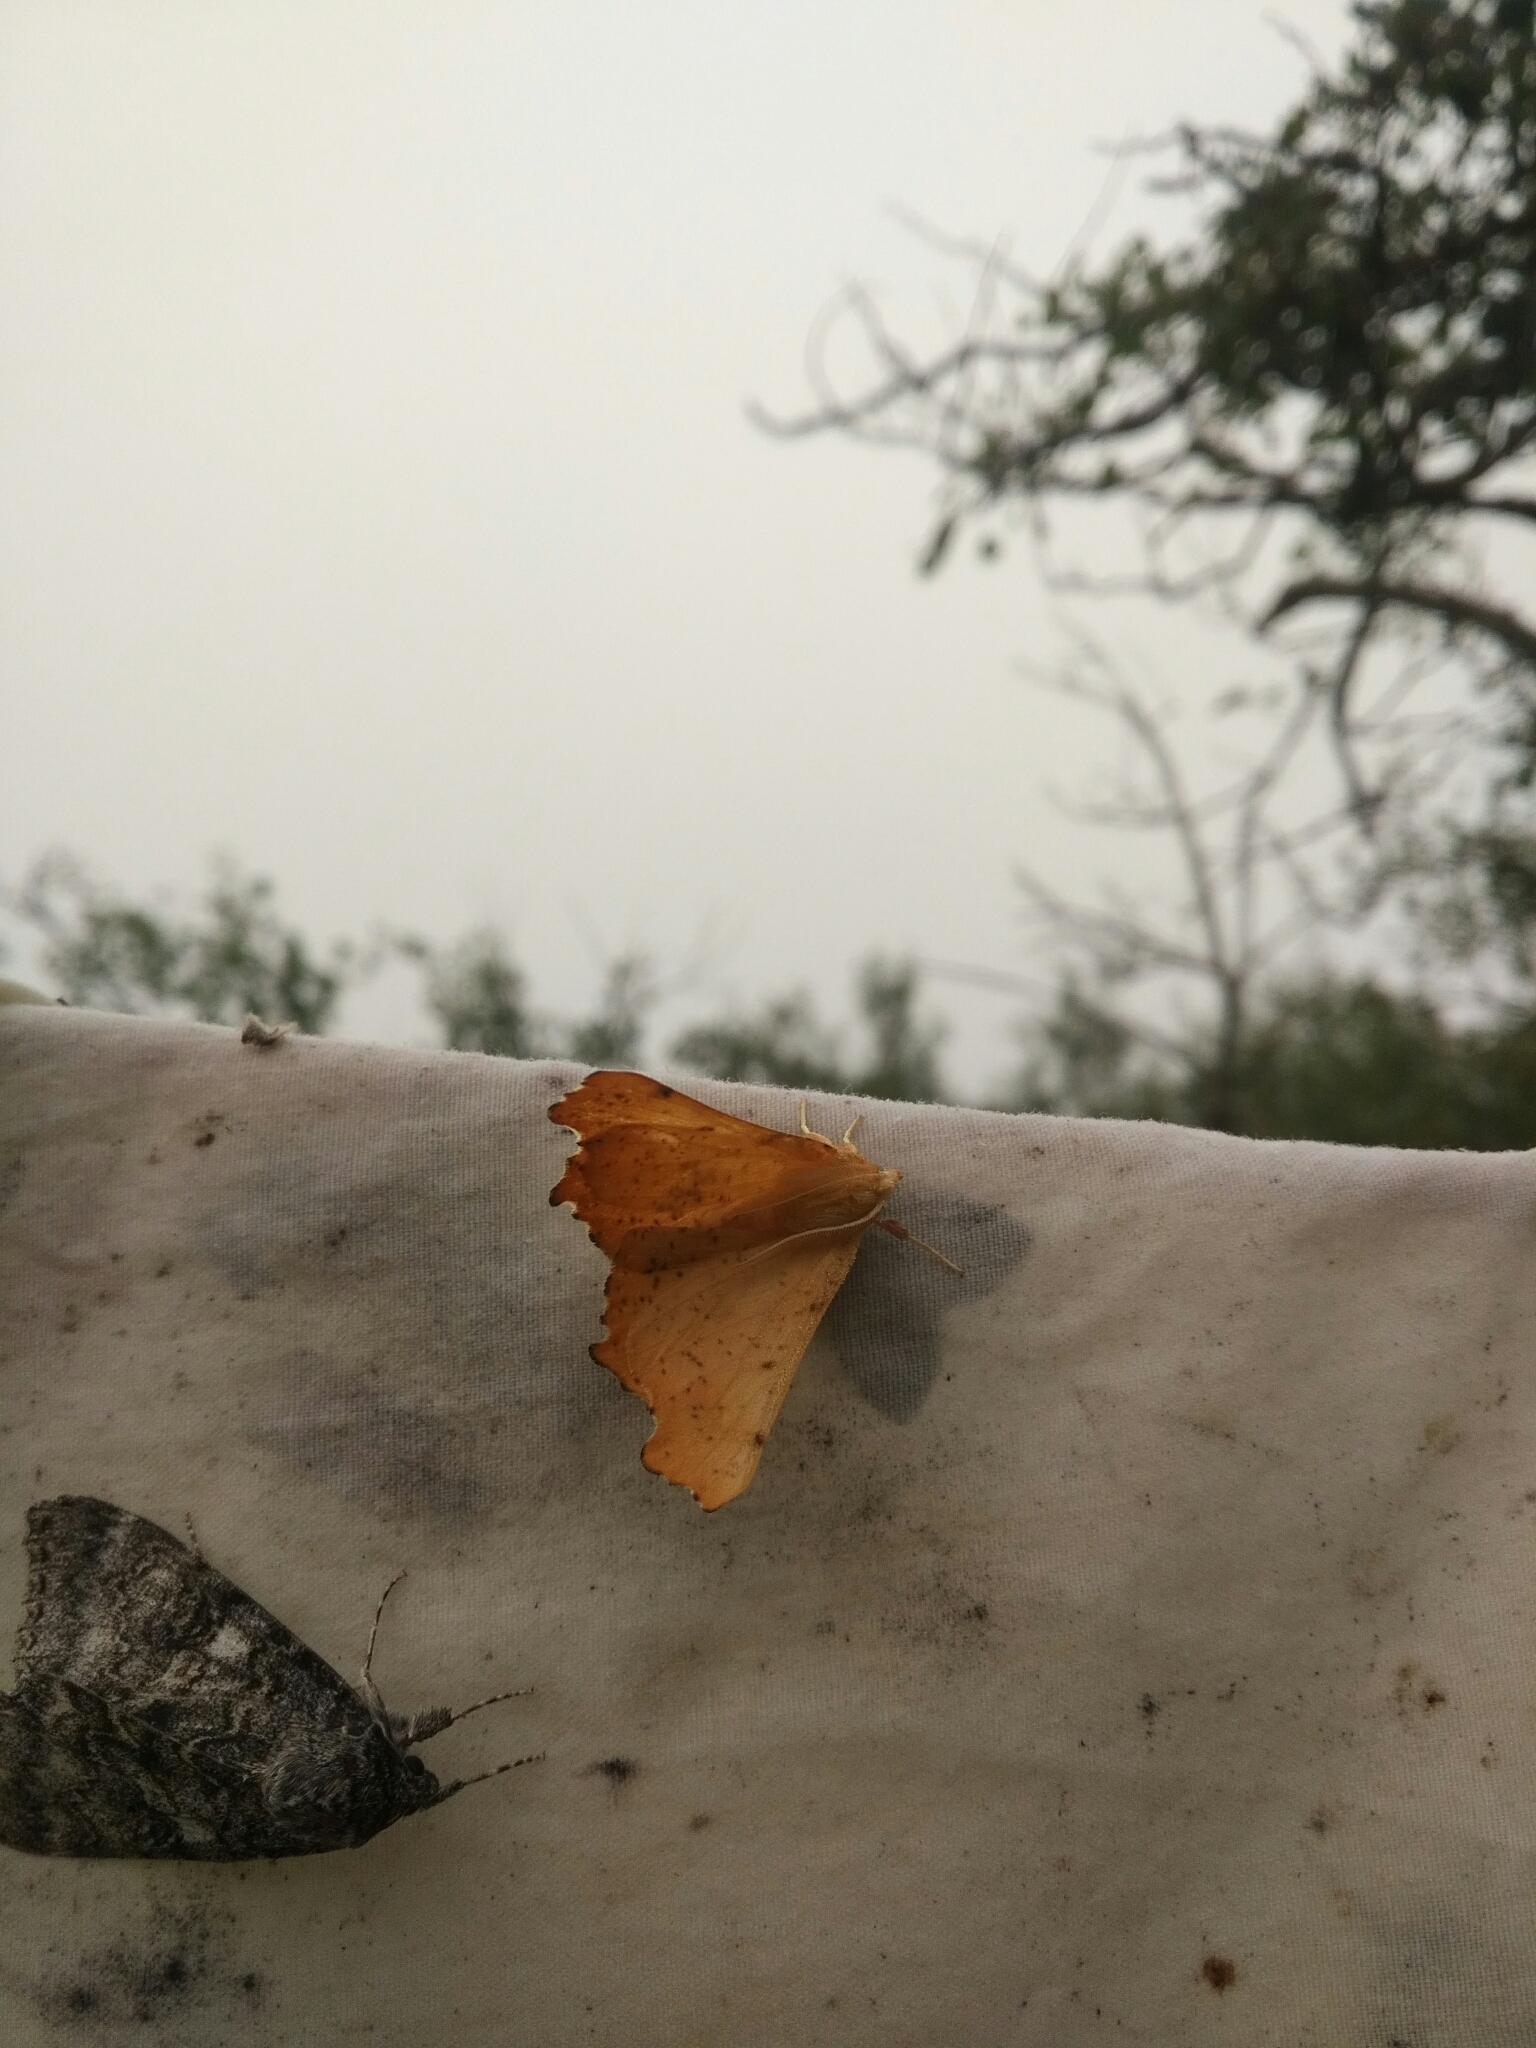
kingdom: Animalia
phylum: Arthropoda
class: Insecta
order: Lepidoptera
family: Geometridae
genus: Ennomos
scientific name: Ennomos magnaria
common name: Maple spanworm
